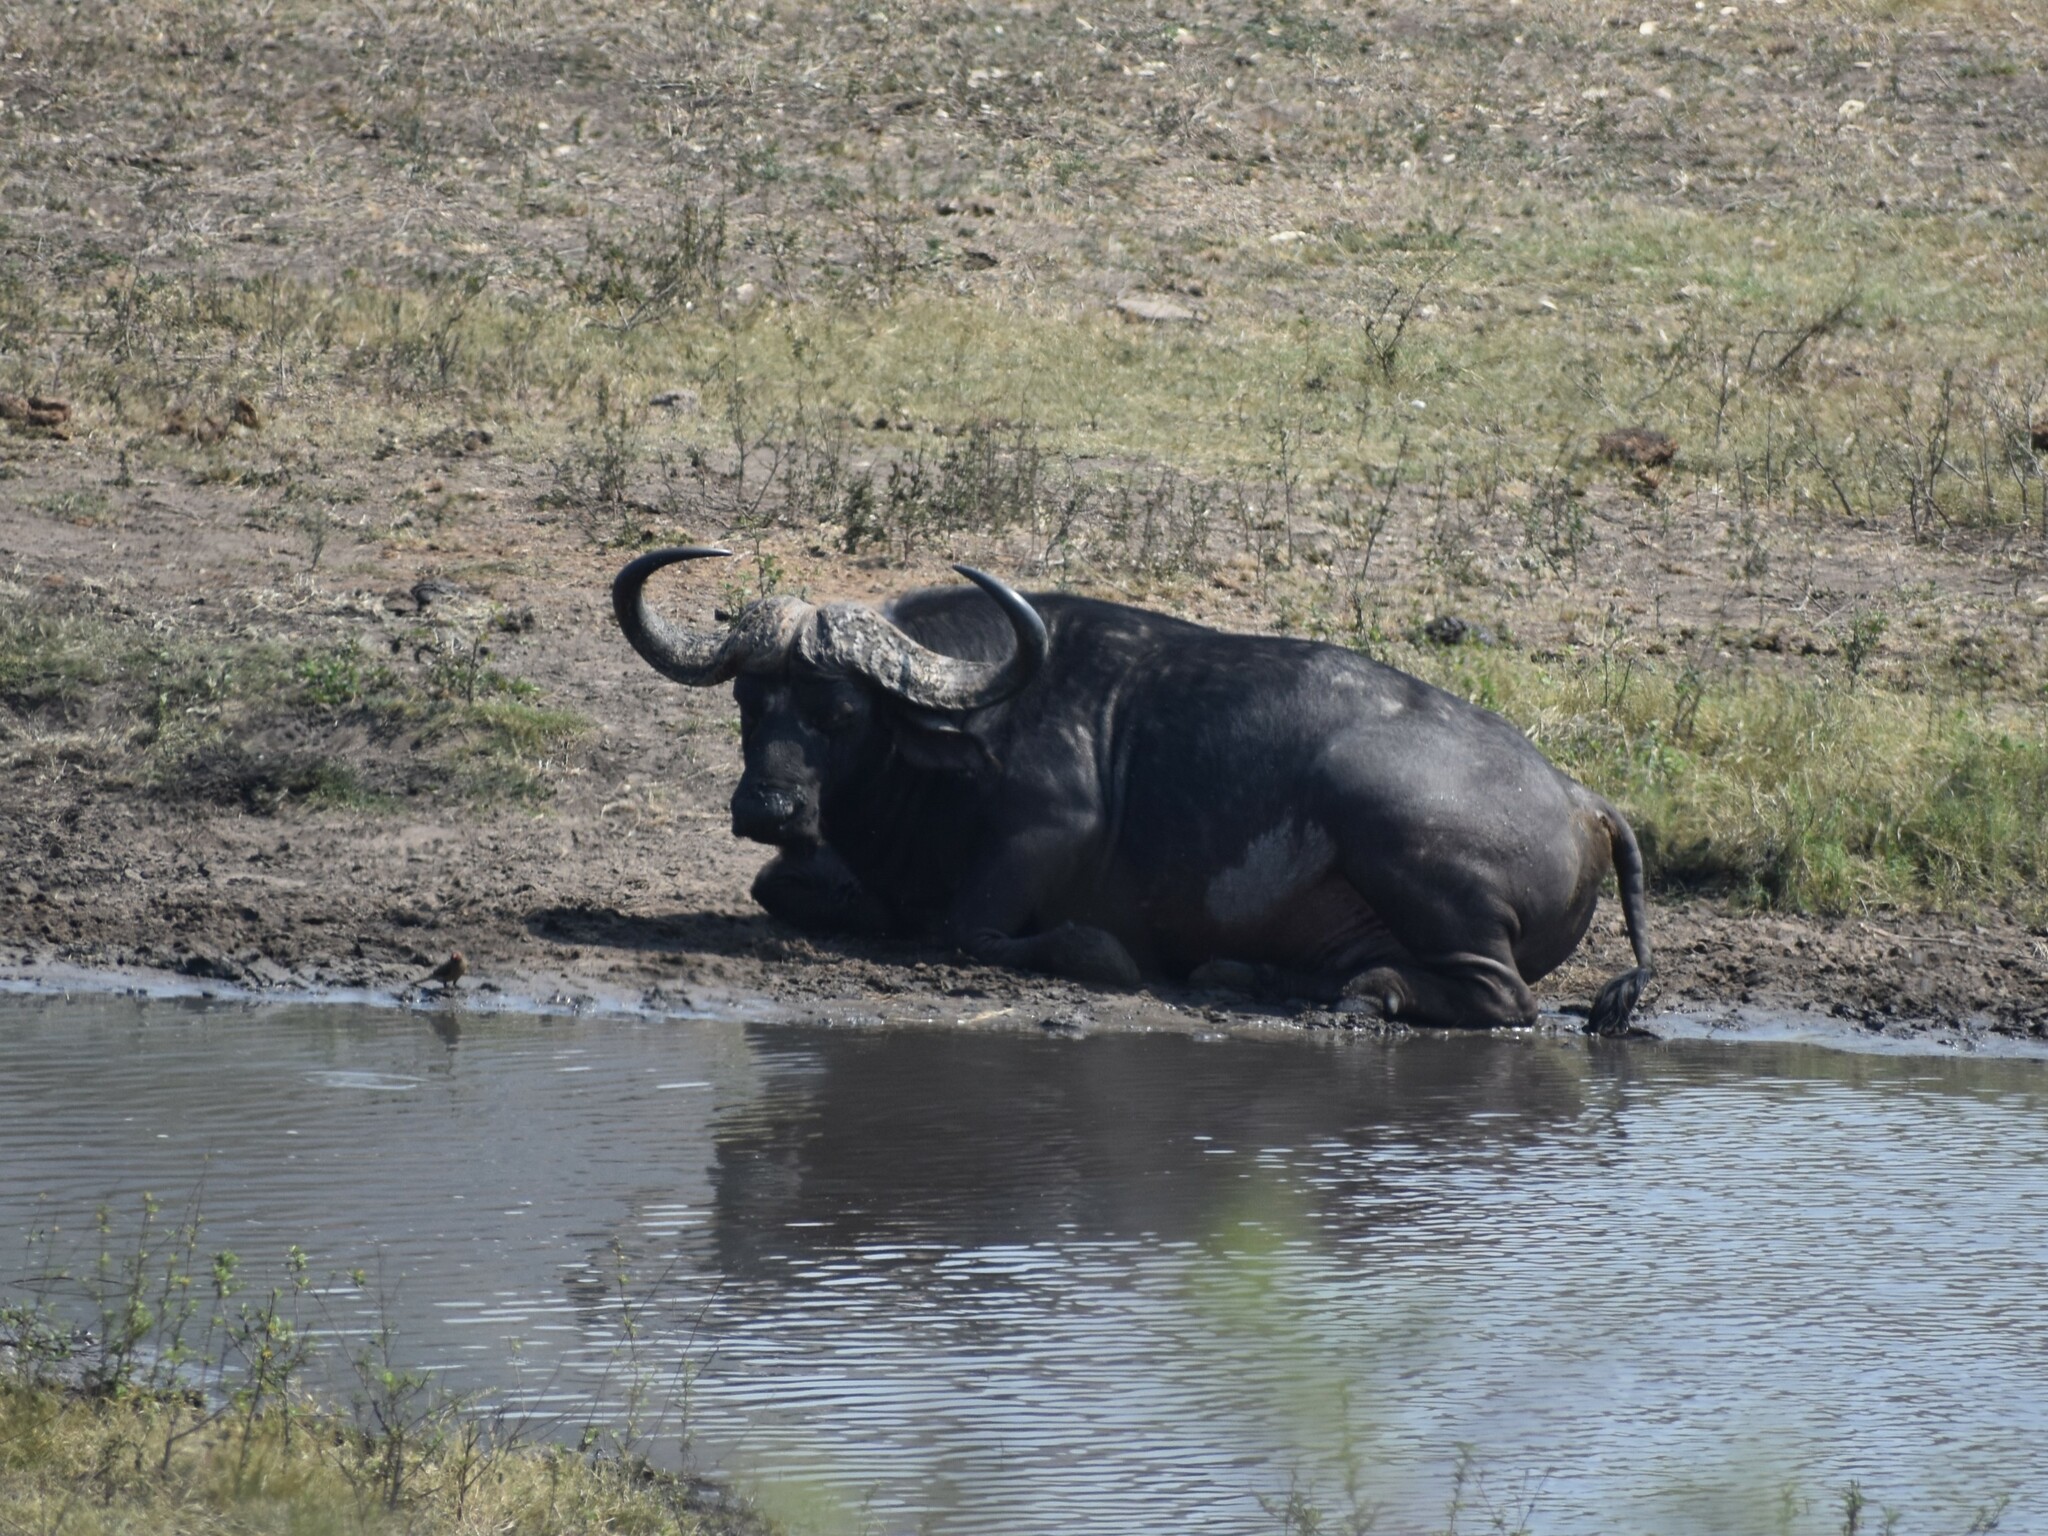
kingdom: Animalia
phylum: Chordata
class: Mammalia
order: Artiodactyla
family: Bovidae
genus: Syncerus
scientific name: Syncerus caffer
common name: African buffalo
